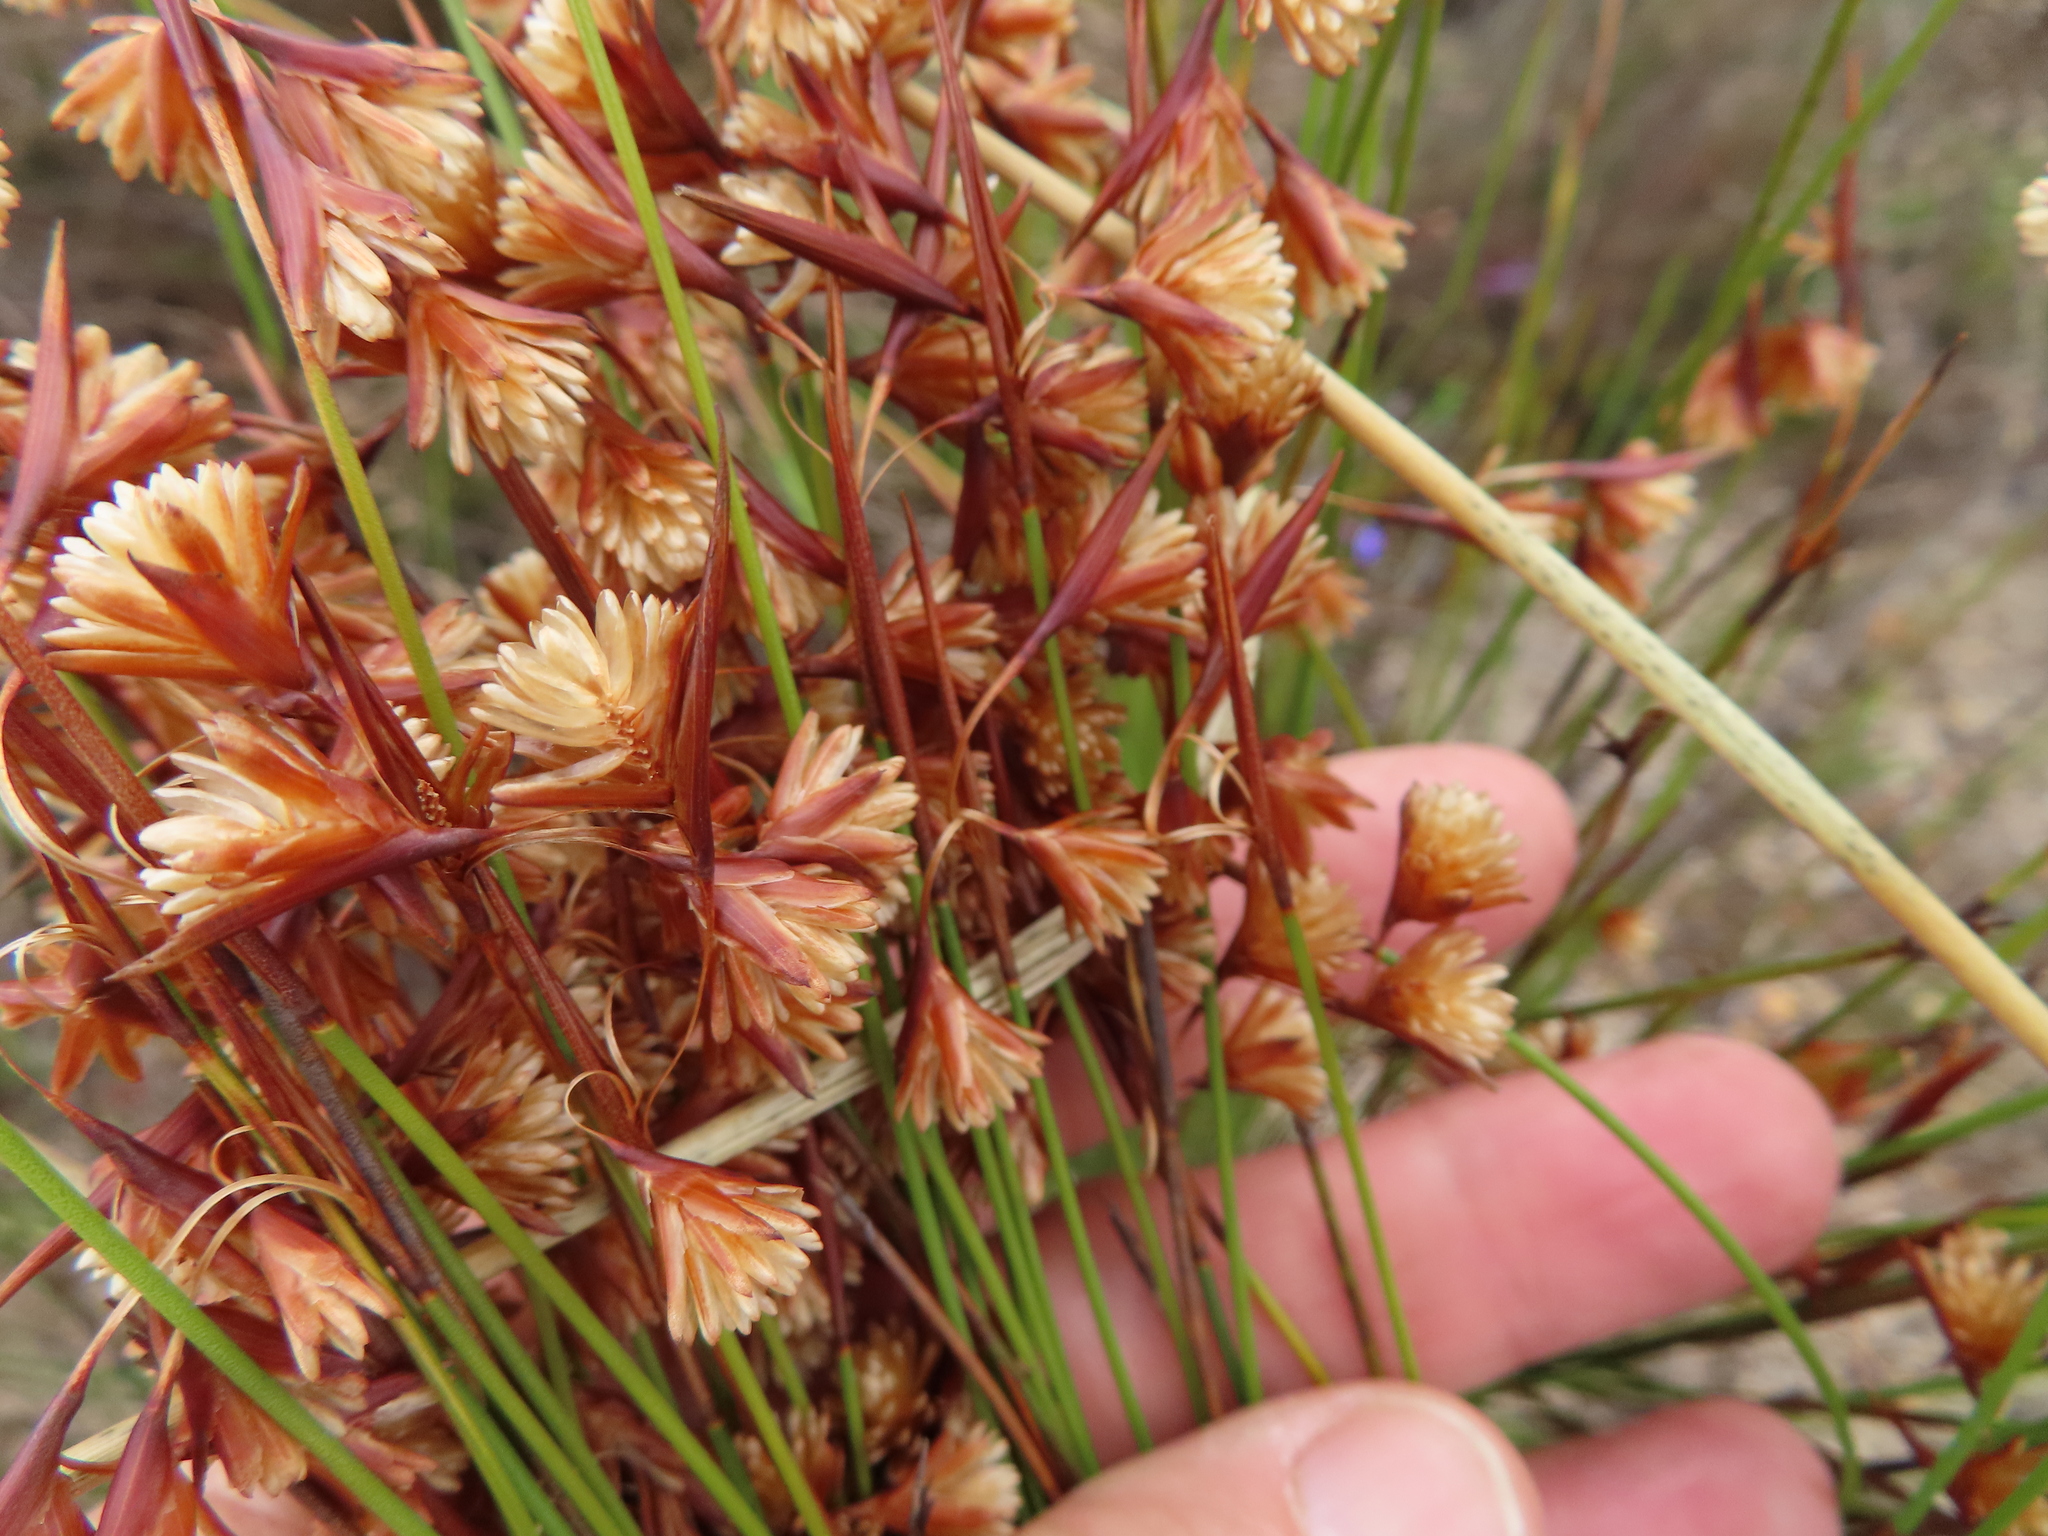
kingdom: Plantae
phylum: Tracheophyta
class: Liliopsida
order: Poales
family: Restionaceae
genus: Staberoha
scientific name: Staberoha cernua
